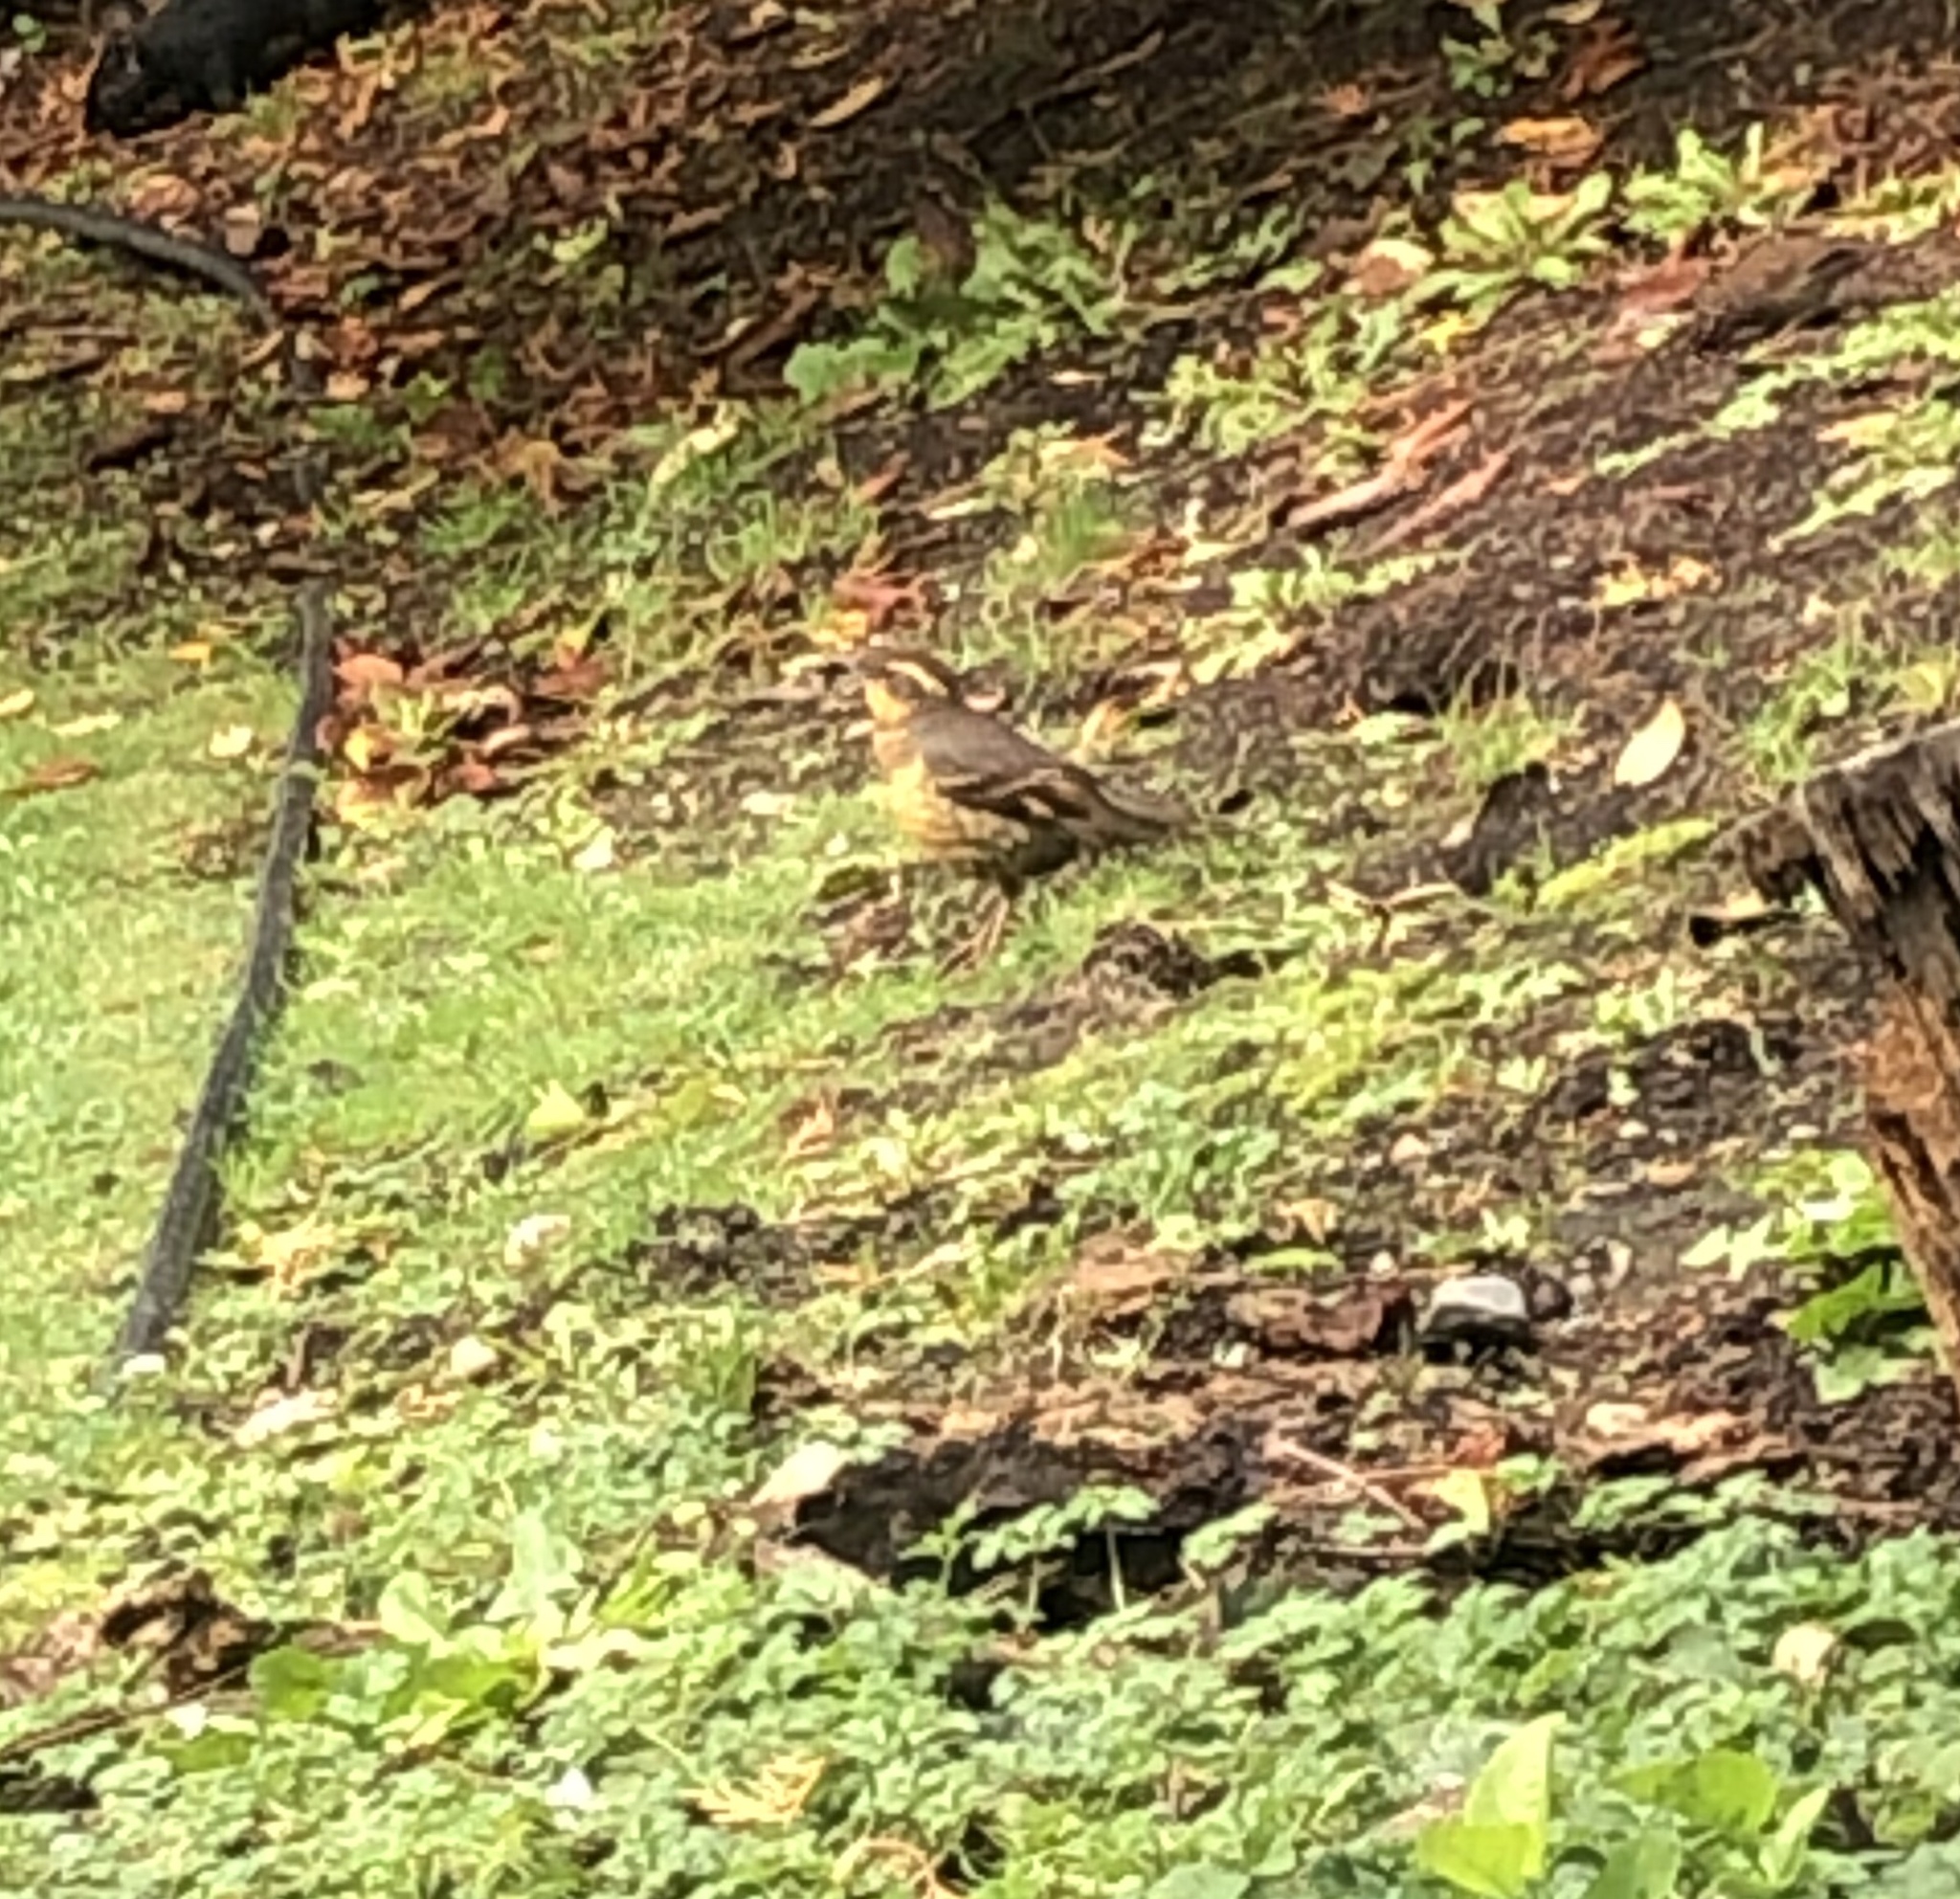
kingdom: Animalia
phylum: Chordata
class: Aves
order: Passeriformes
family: Turdidae
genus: Ixoreus
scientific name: Ixoreus naevius
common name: Varied thrush
